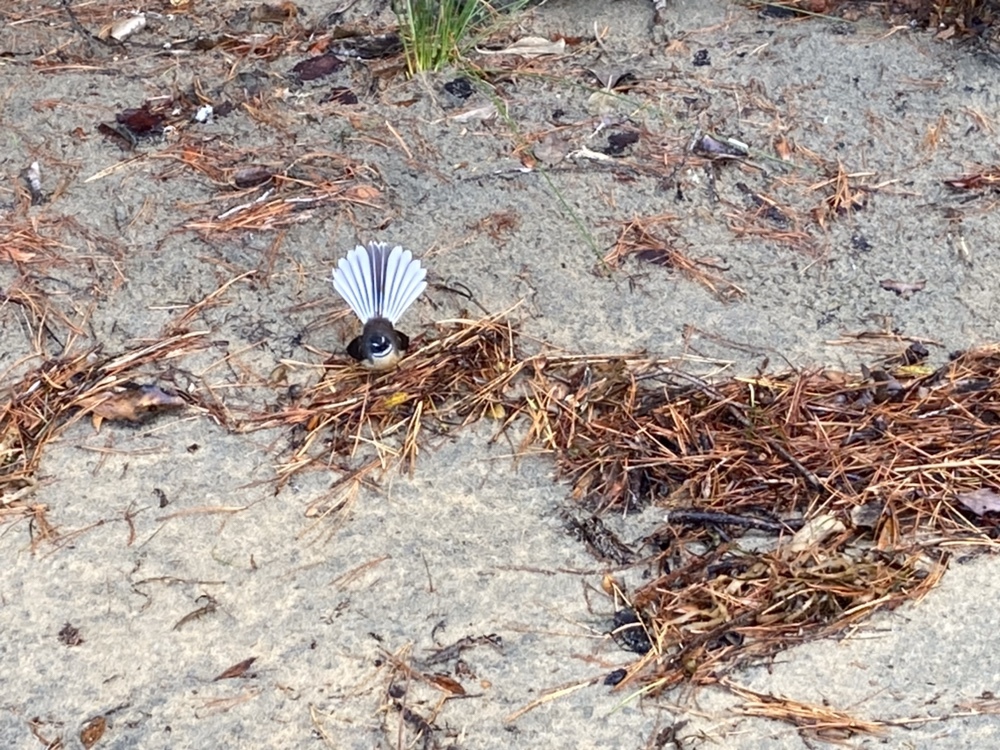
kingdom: Animalia
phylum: Chordata
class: Aves
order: Passeriformes
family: Rhipiduridae
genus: Rhipidura
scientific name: Rhipidura fuliginosa
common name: New zealand fantail
